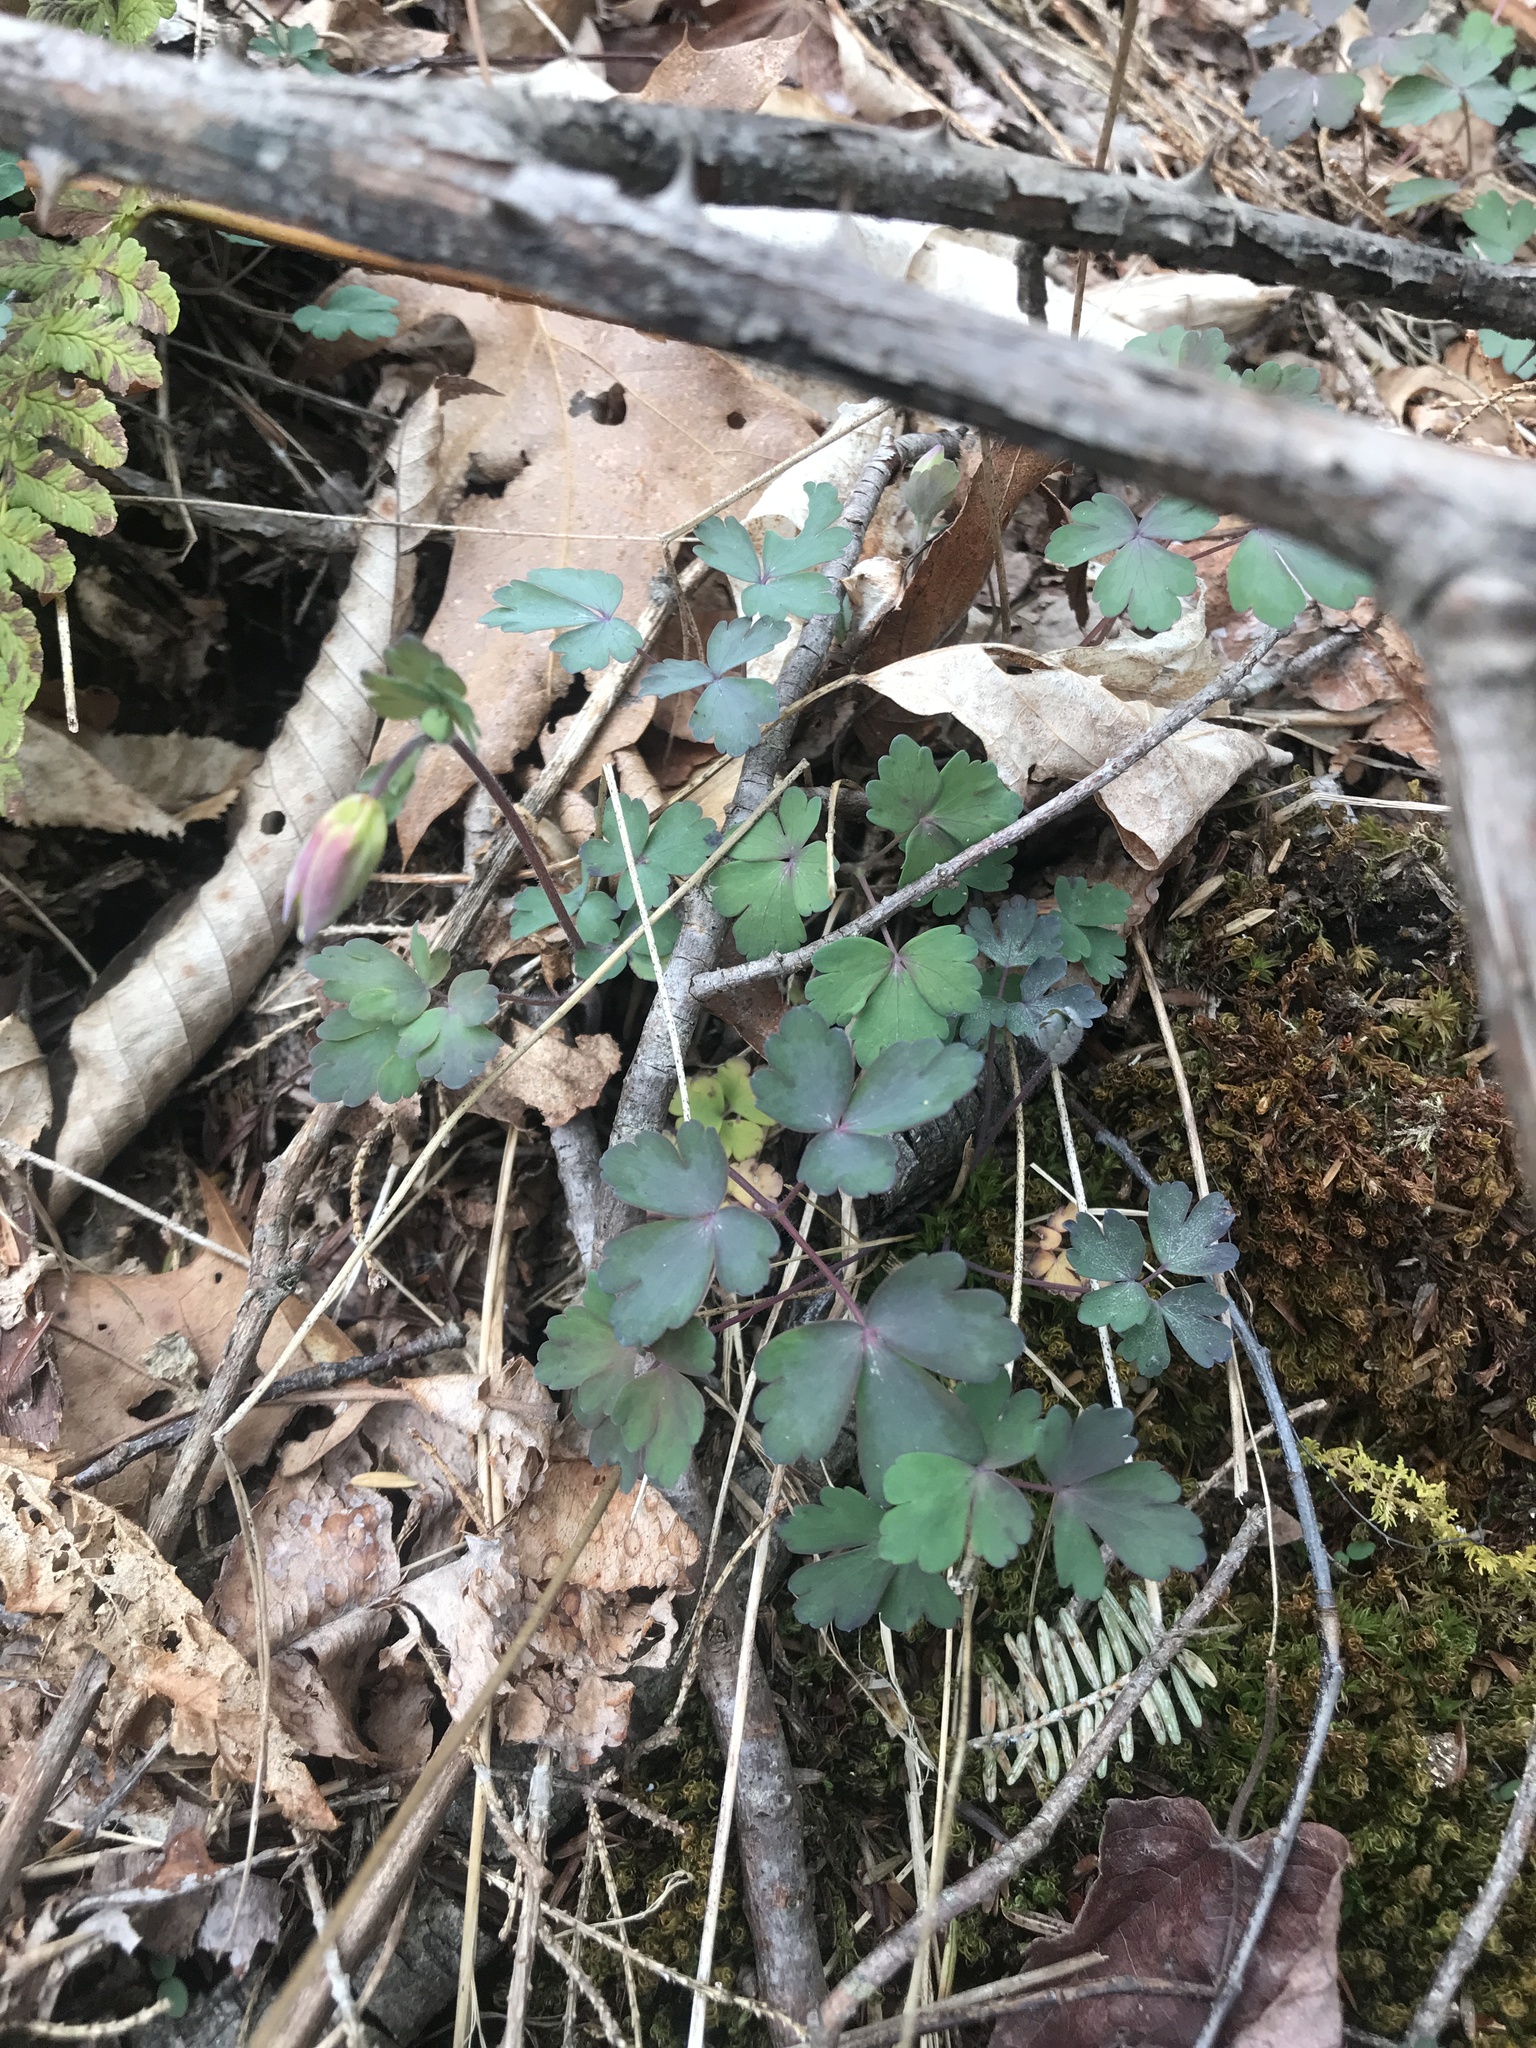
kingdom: Plantae
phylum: Tracheophyta
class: Magnoliopsida
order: Ranunculales
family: Ranunculaceae
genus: Aquilegia
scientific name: Aquilegia canadensis
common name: American columbine
